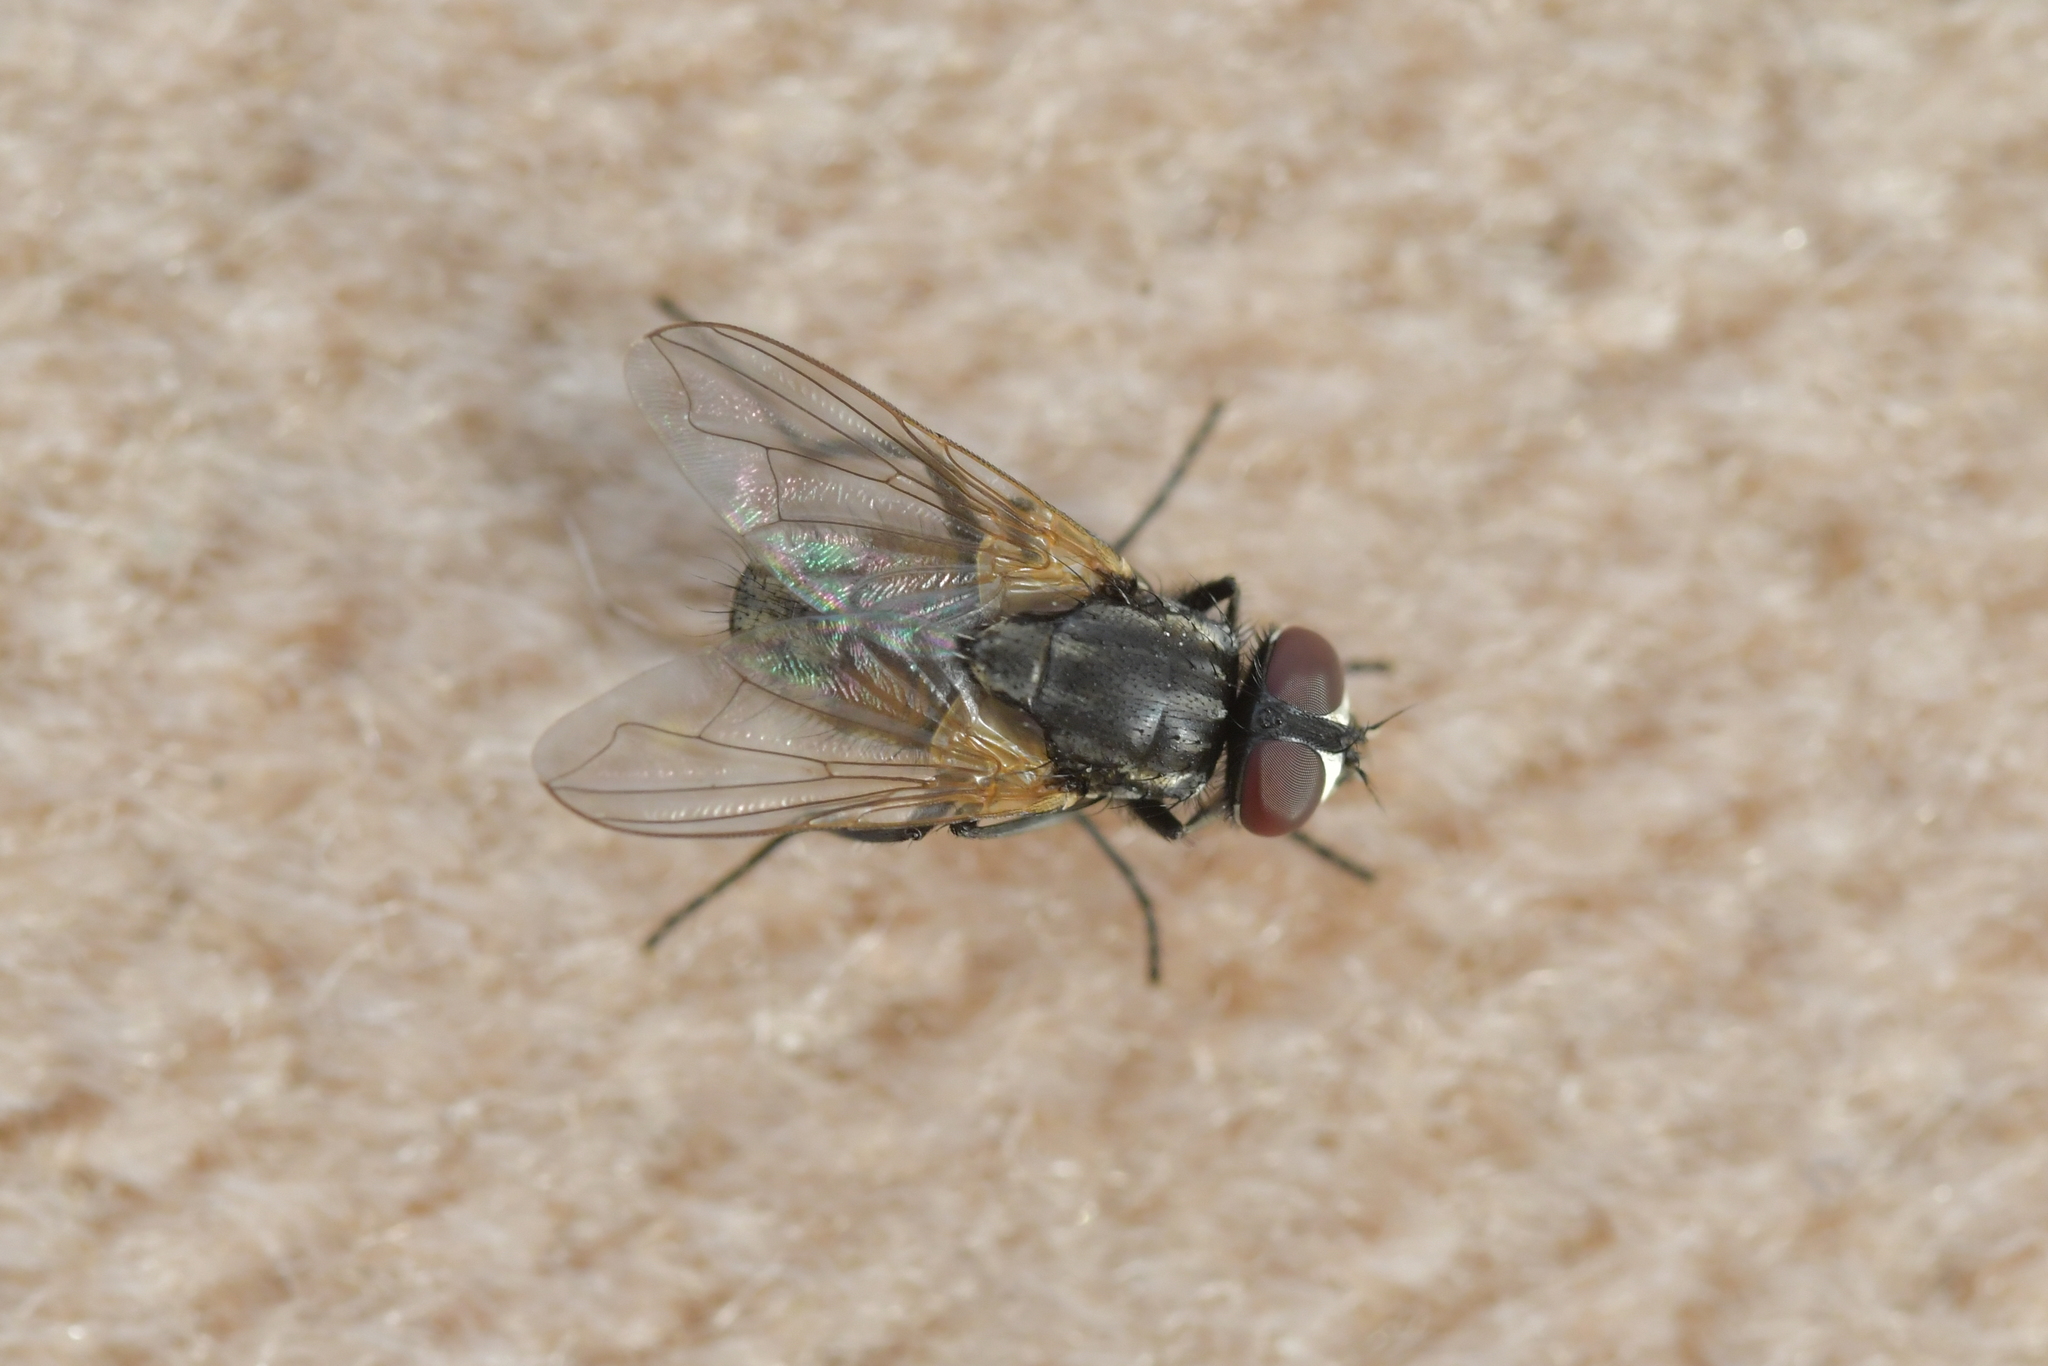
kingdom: Animalia
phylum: Arthropoda
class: Insecta
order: Diptera
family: Muscidae
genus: Musca
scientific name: Musca domestica
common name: House fly
